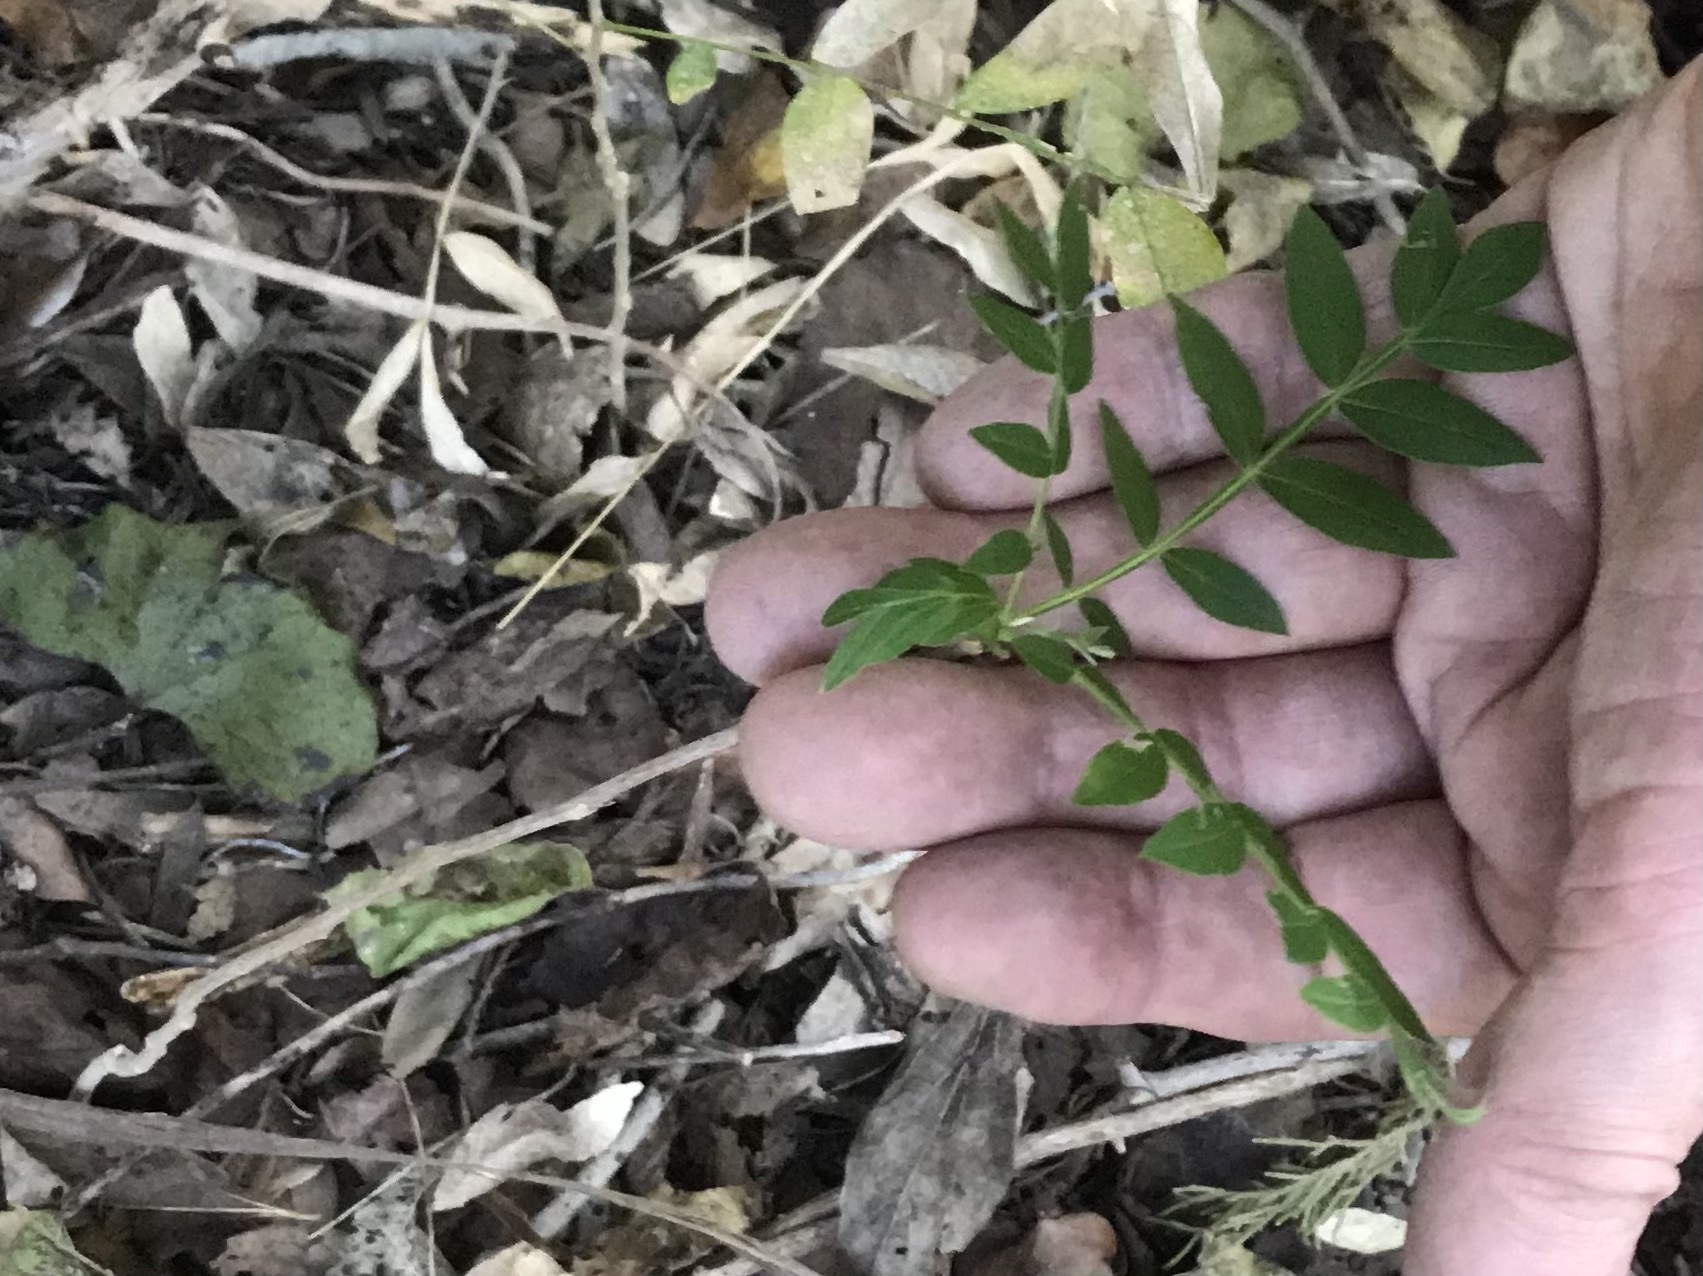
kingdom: Plantae
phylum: Tracheophyta
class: Magnoliopsida
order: Sapindales
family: Sapindaceae
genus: Sapindus
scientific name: Sapindus drummondii
